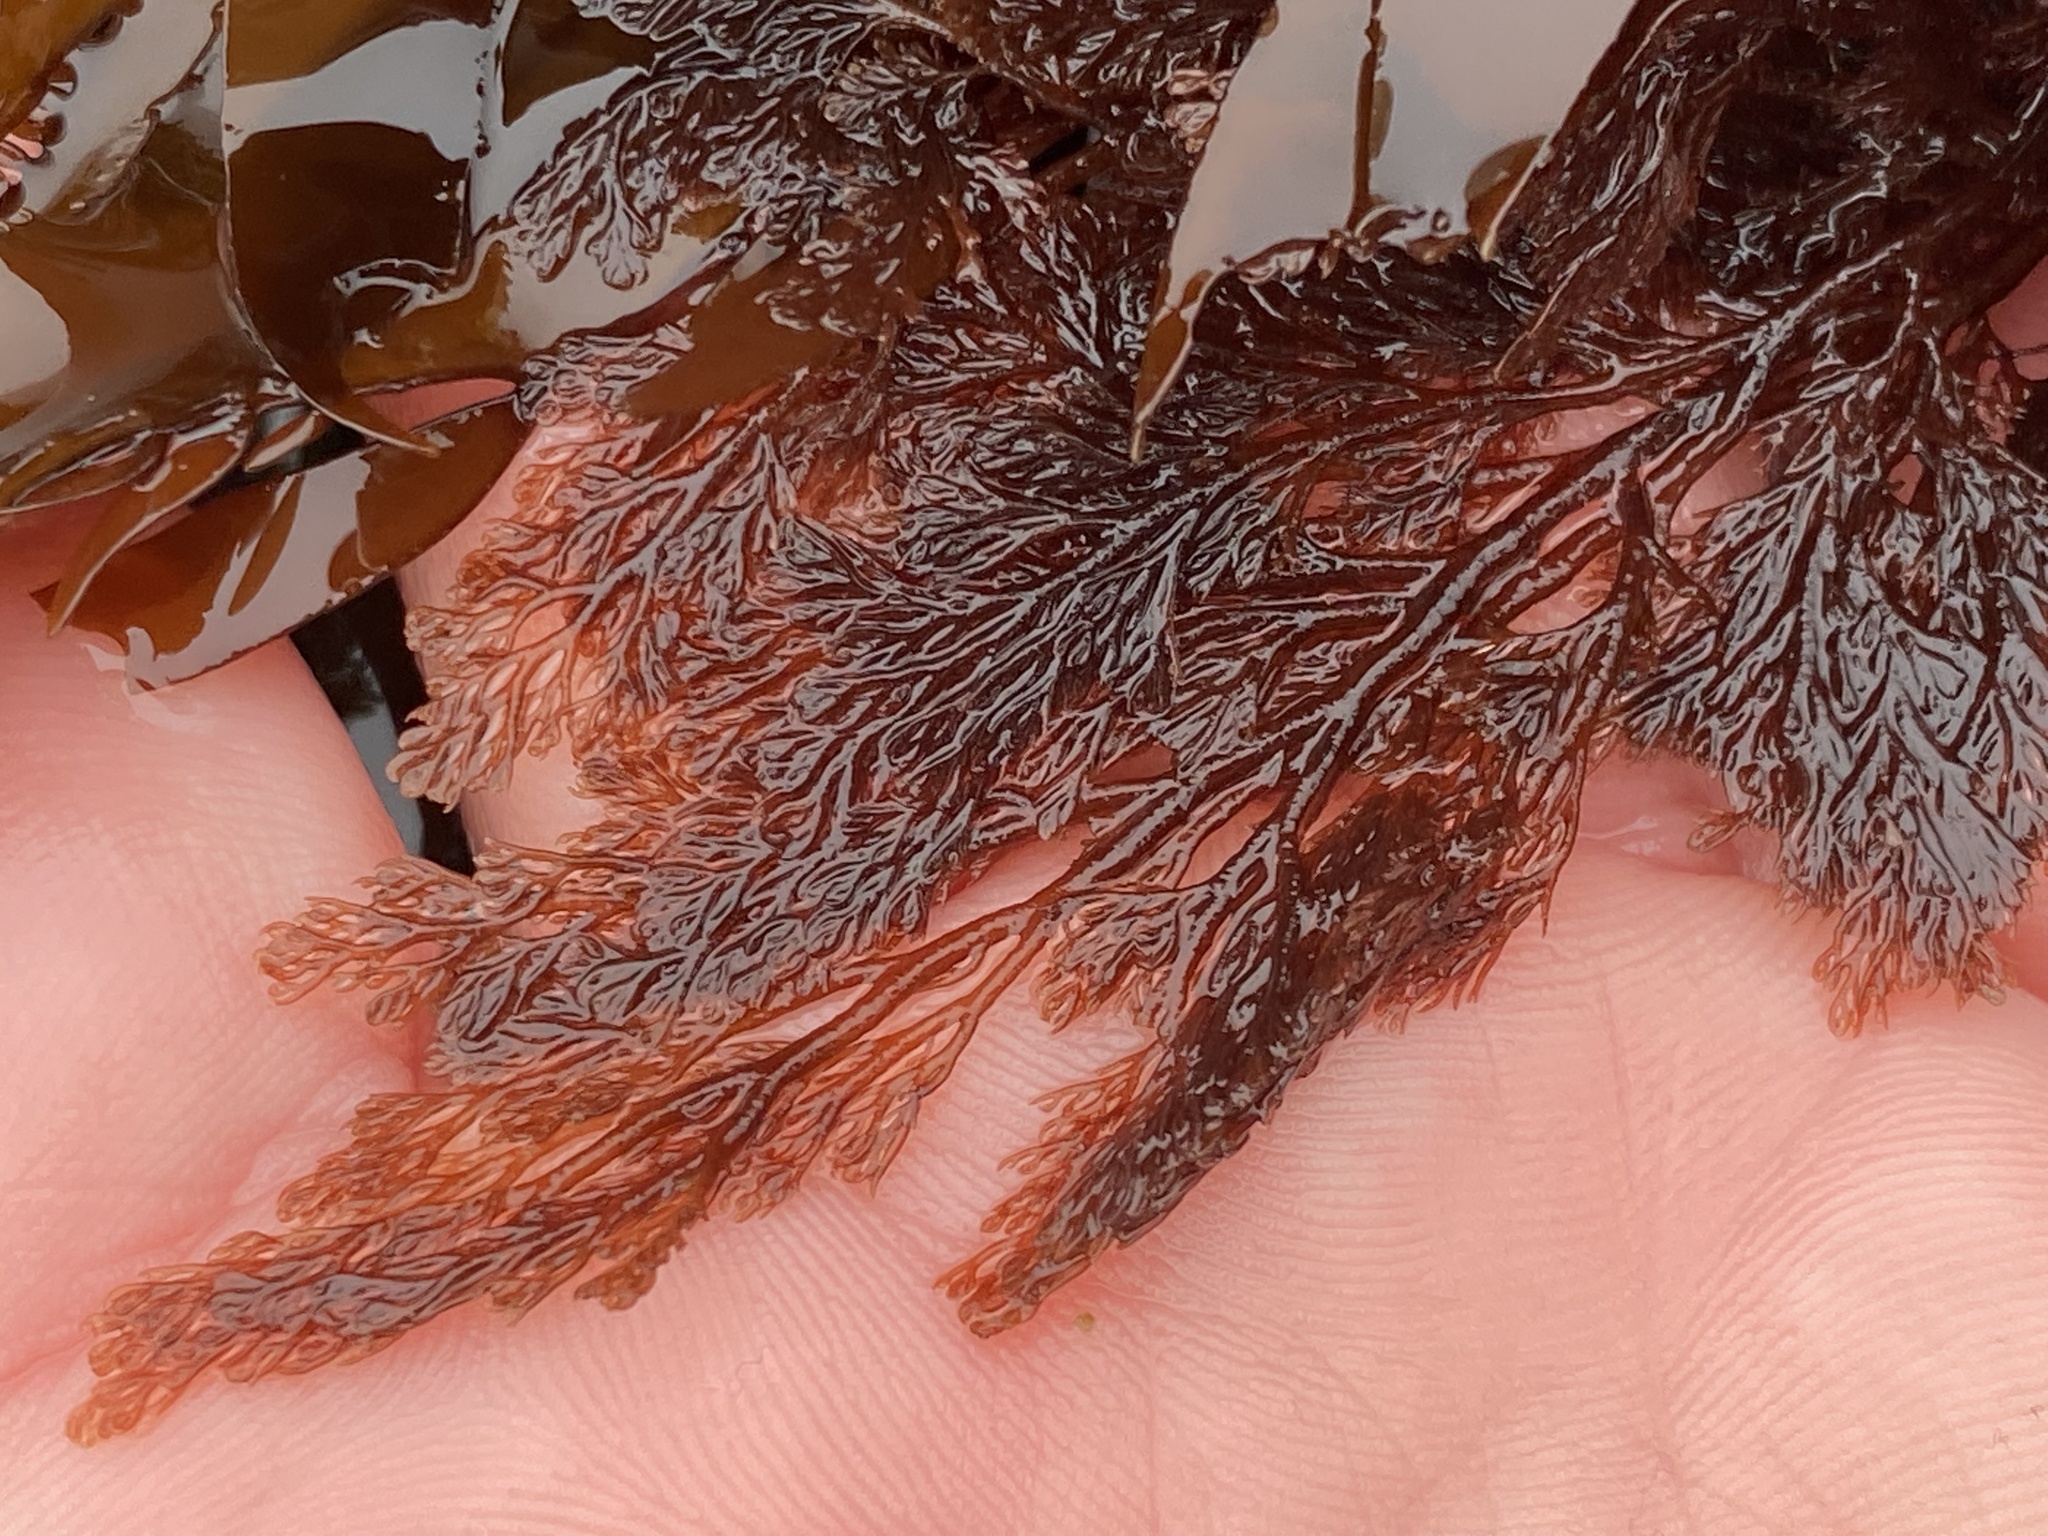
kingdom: Plantae
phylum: Rhodophyta
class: Florideophyceae
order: Ceramiales
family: Ceramiaceae
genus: Microcladia
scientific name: Microcladia coulteri
